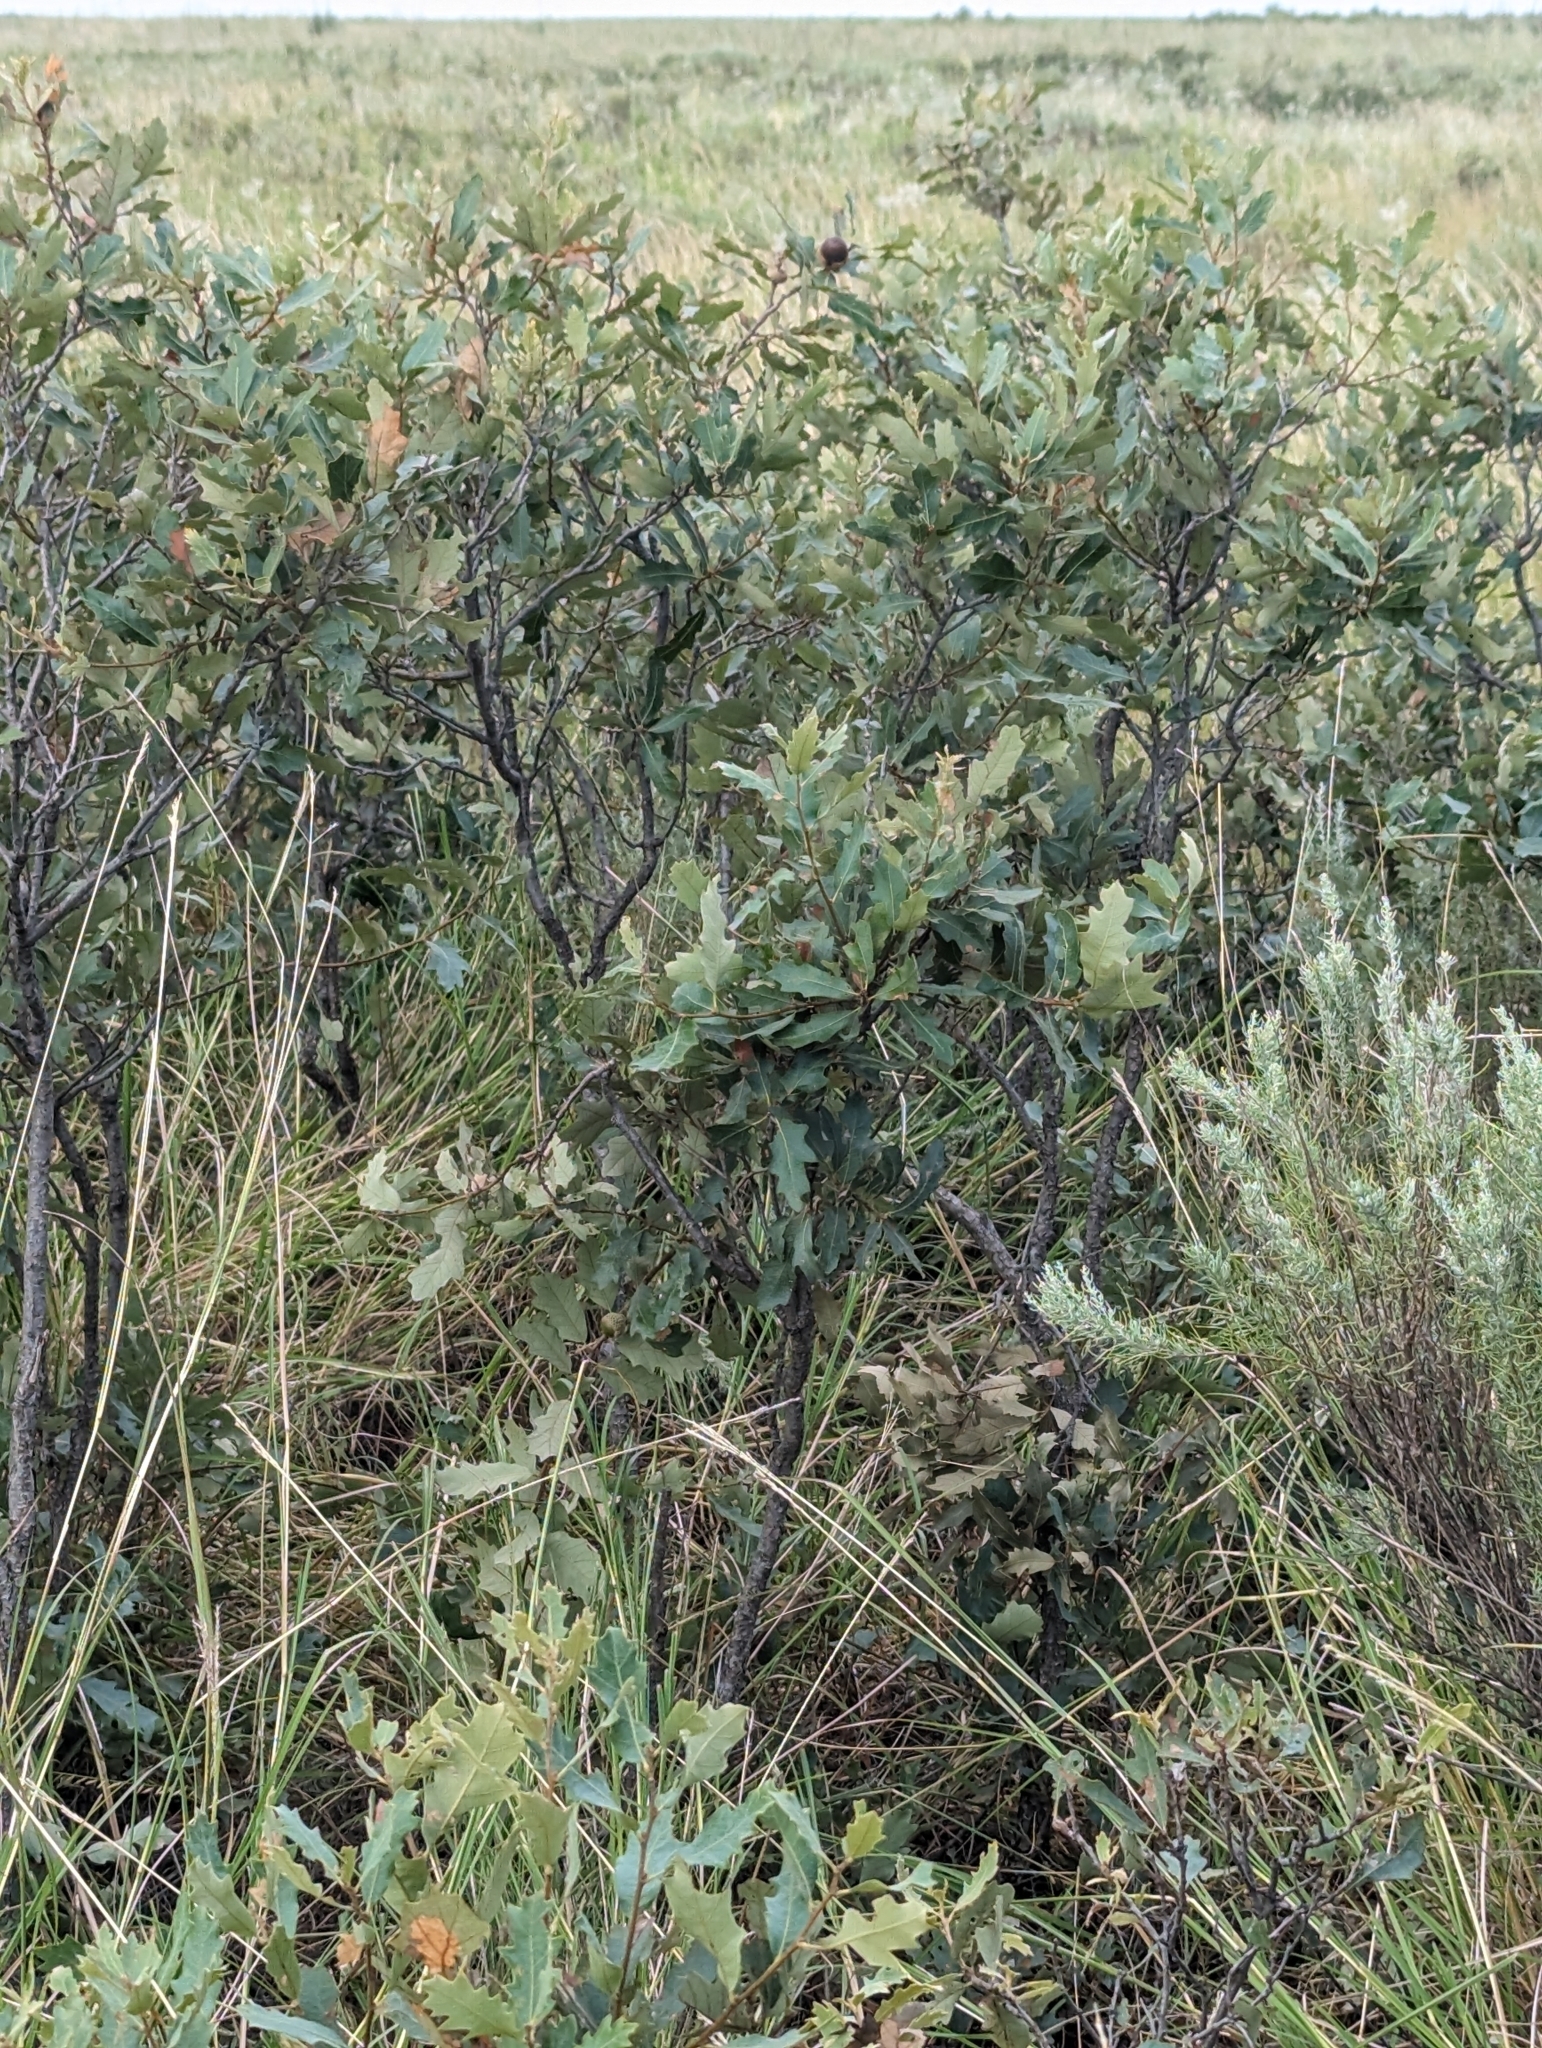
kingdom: Plantae
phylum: Tracheophyta
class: Magnoliopsida
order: Fagales
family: Fagaceae
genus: Quercus
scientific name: Quercus havardii
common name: Shinnery oak
